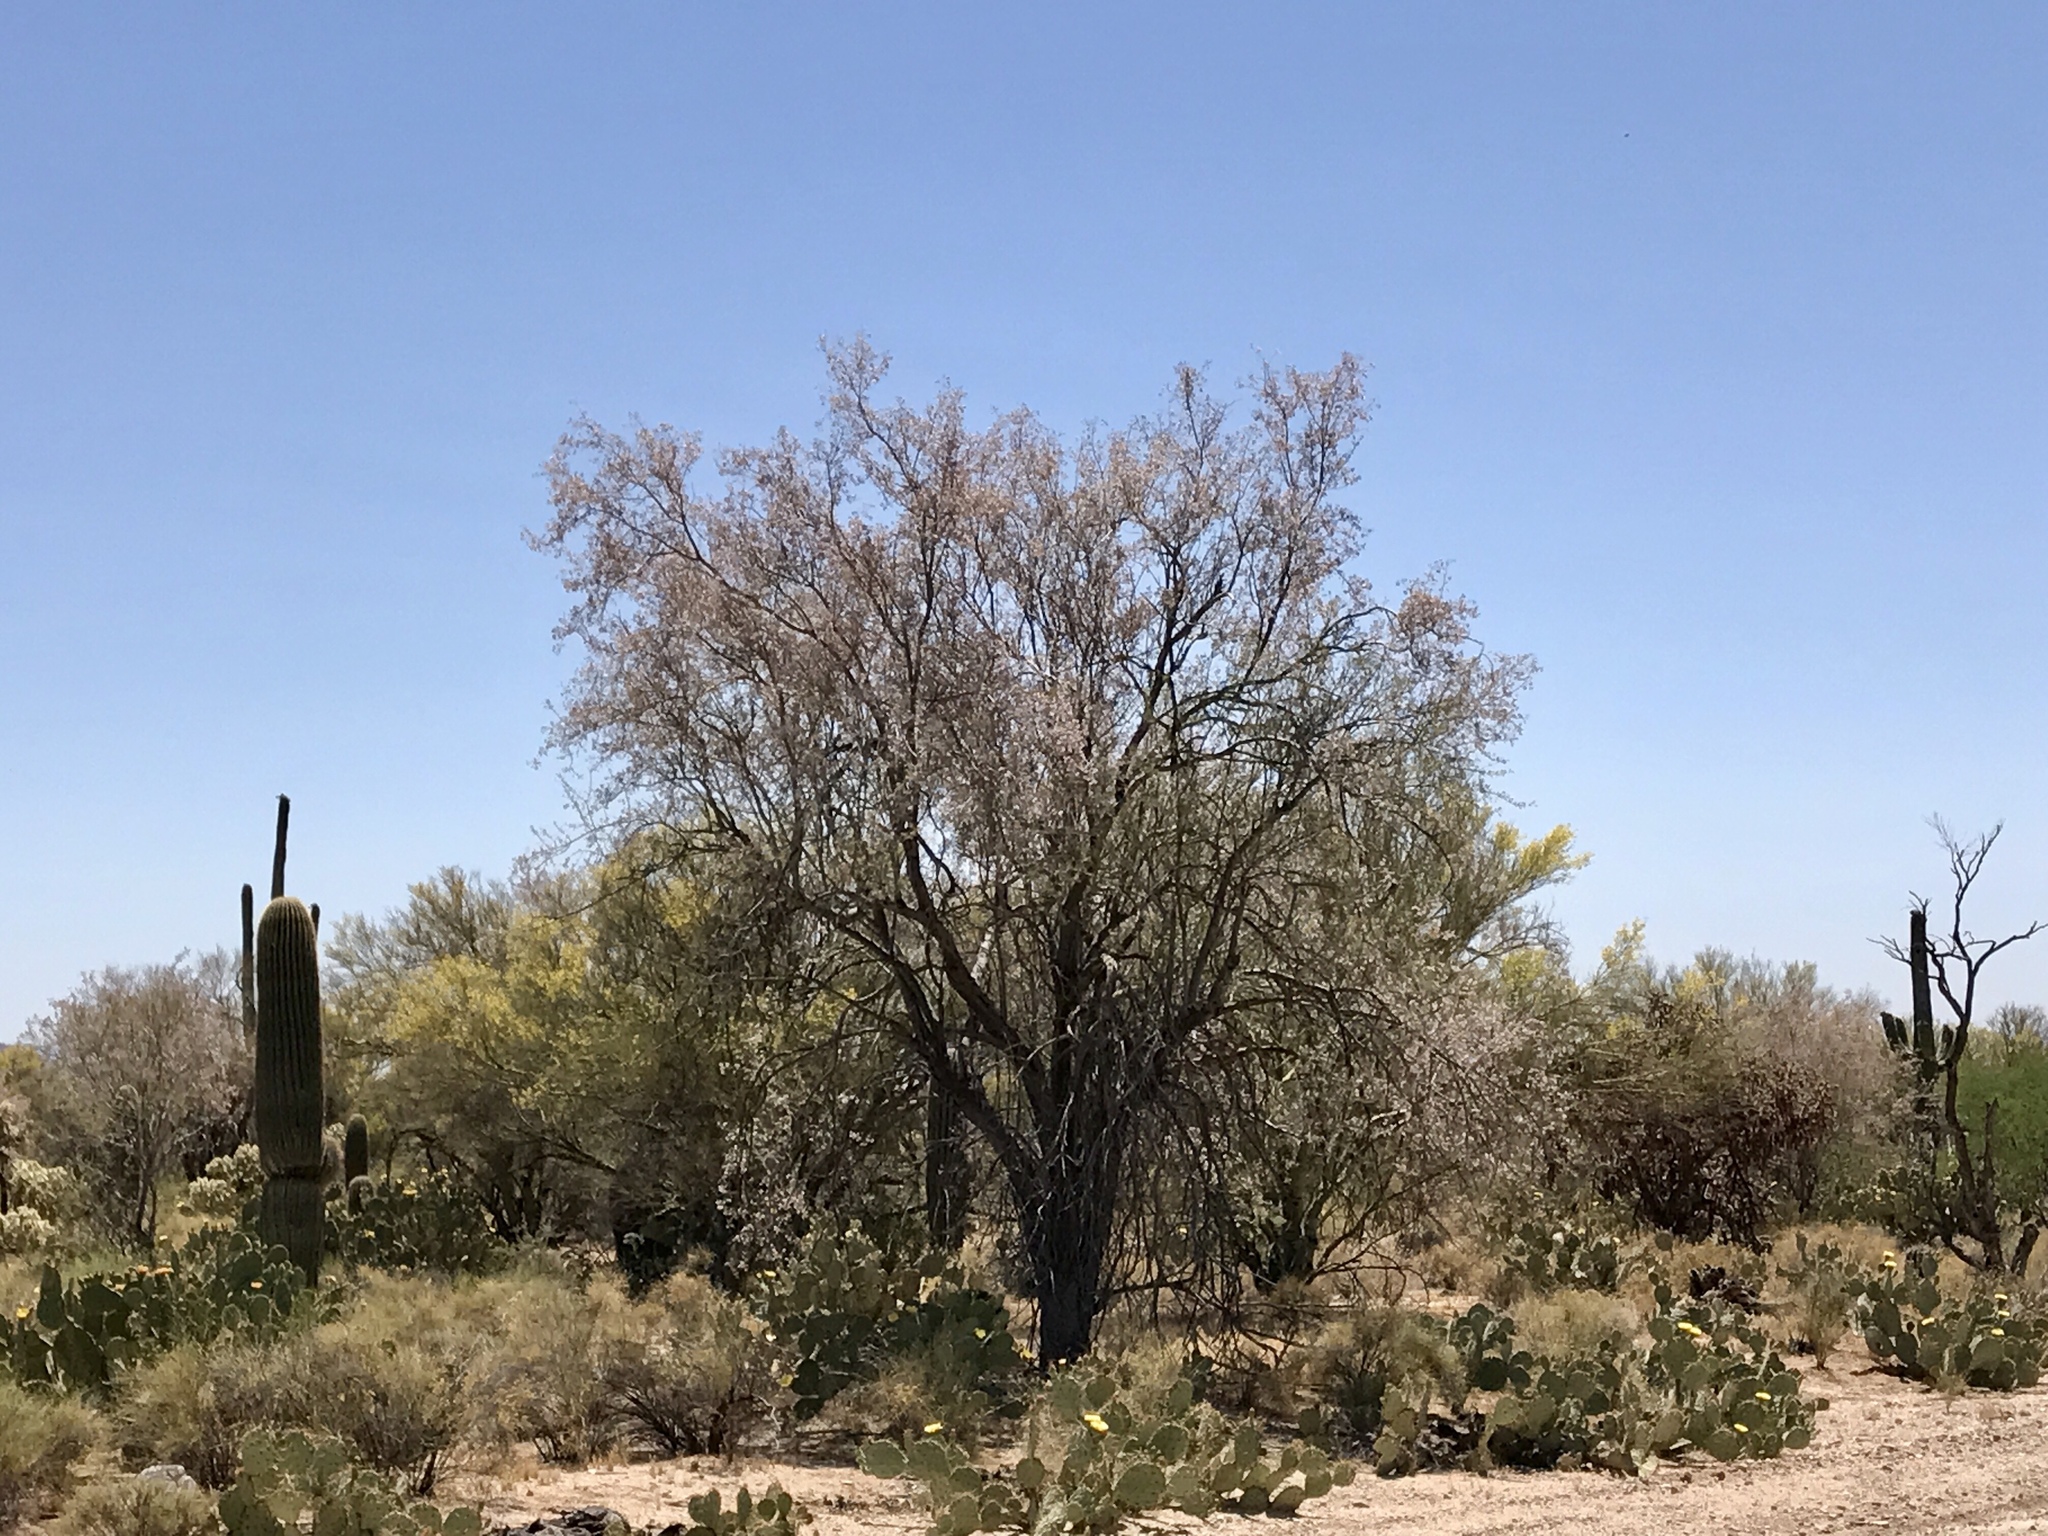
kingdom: Plantae
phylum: Tracheophyta
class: Magnoliopsida
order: Fabales
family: Fabaceae
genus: Olneya
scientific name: Olneya tesota
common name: Desert ironwood
